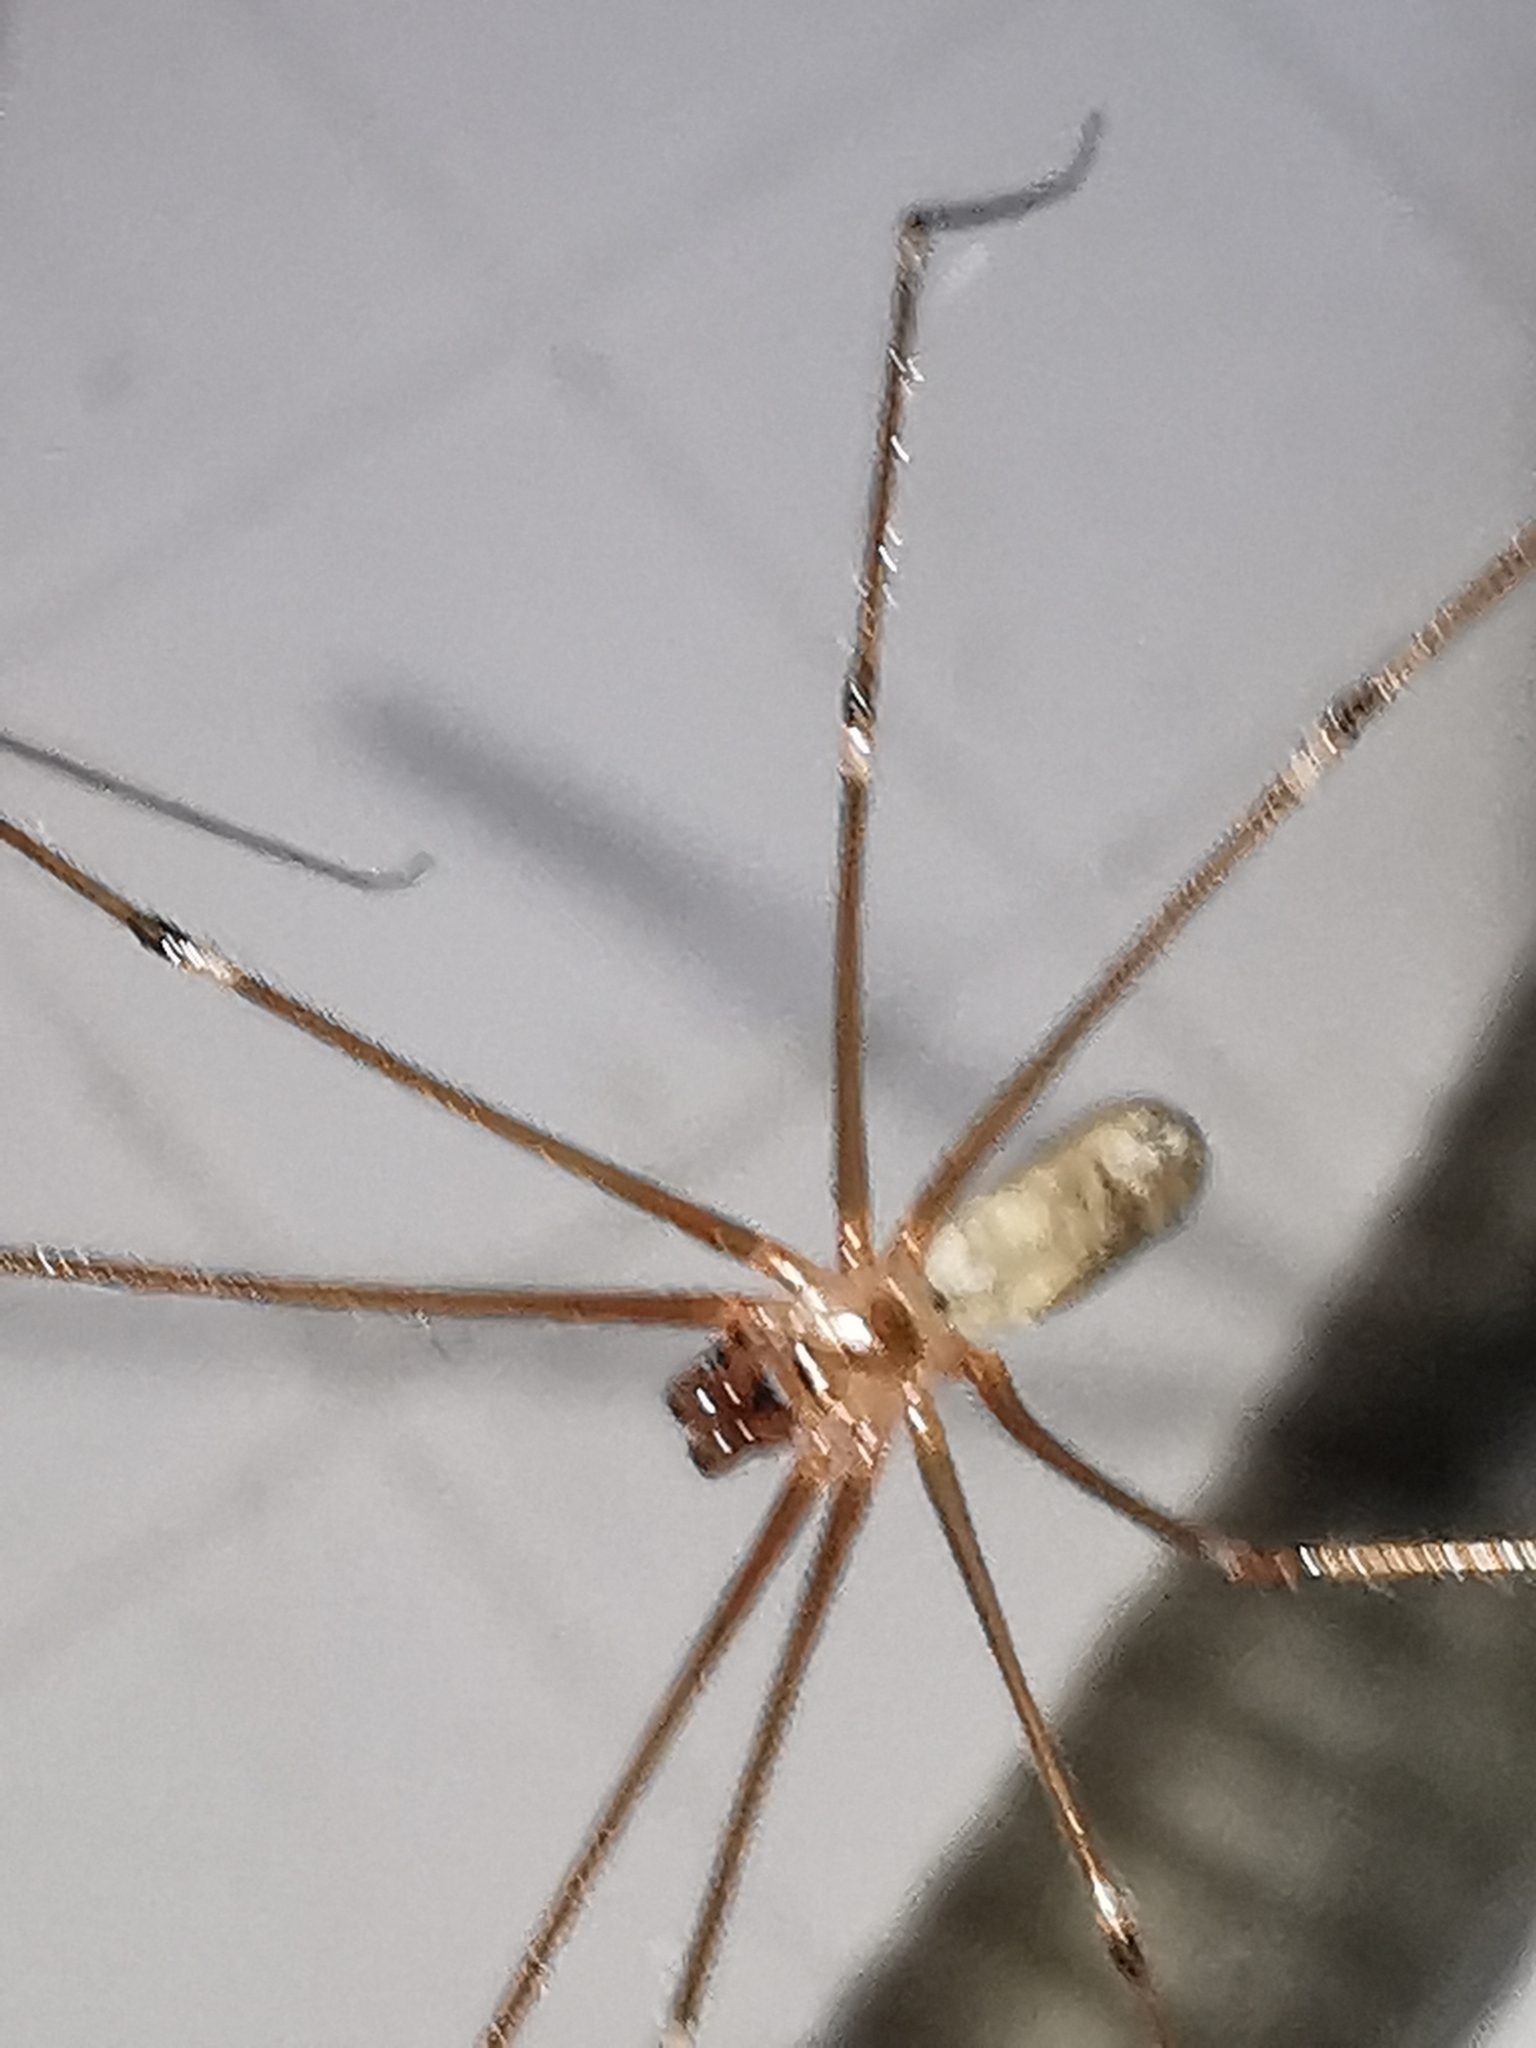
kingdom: Animalia
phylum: Arthropoda
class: Arachnida
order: Araneae
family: Pholcidae
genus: Pholcus
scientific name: Pholcus phalangioides
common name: Longbodied cellar spider
